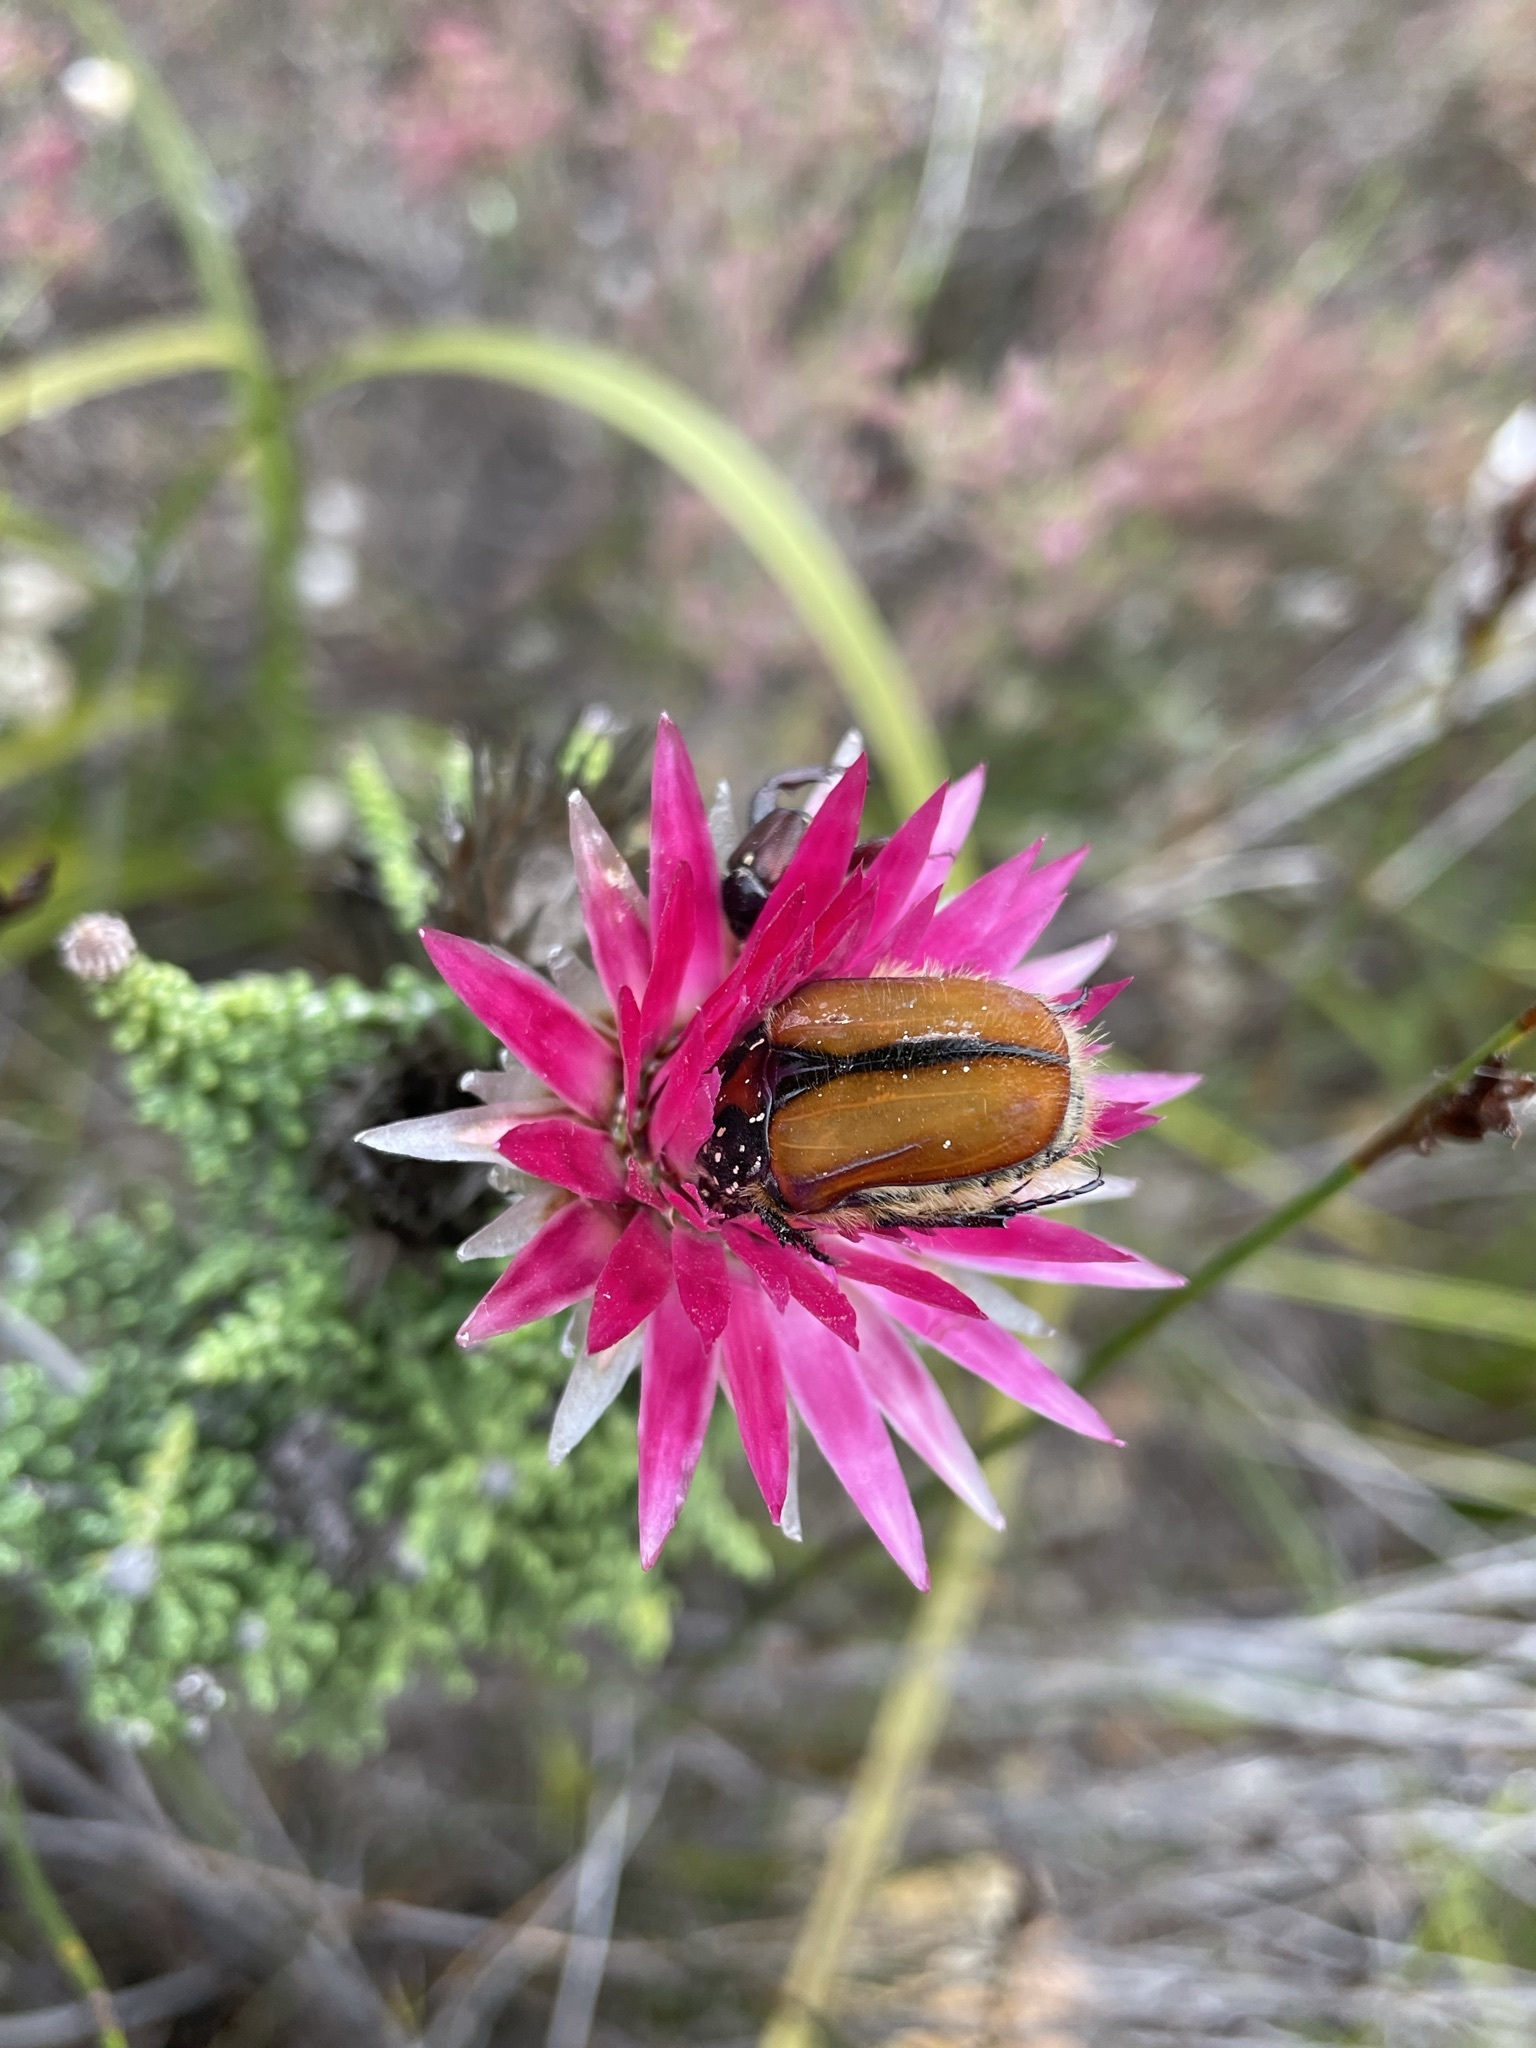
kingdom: Animalia
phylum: Arthropoda
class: Insecta
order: Coleoptera
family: Scarabaeidae
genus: Trichostetha
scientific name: Trichostetha capensis
